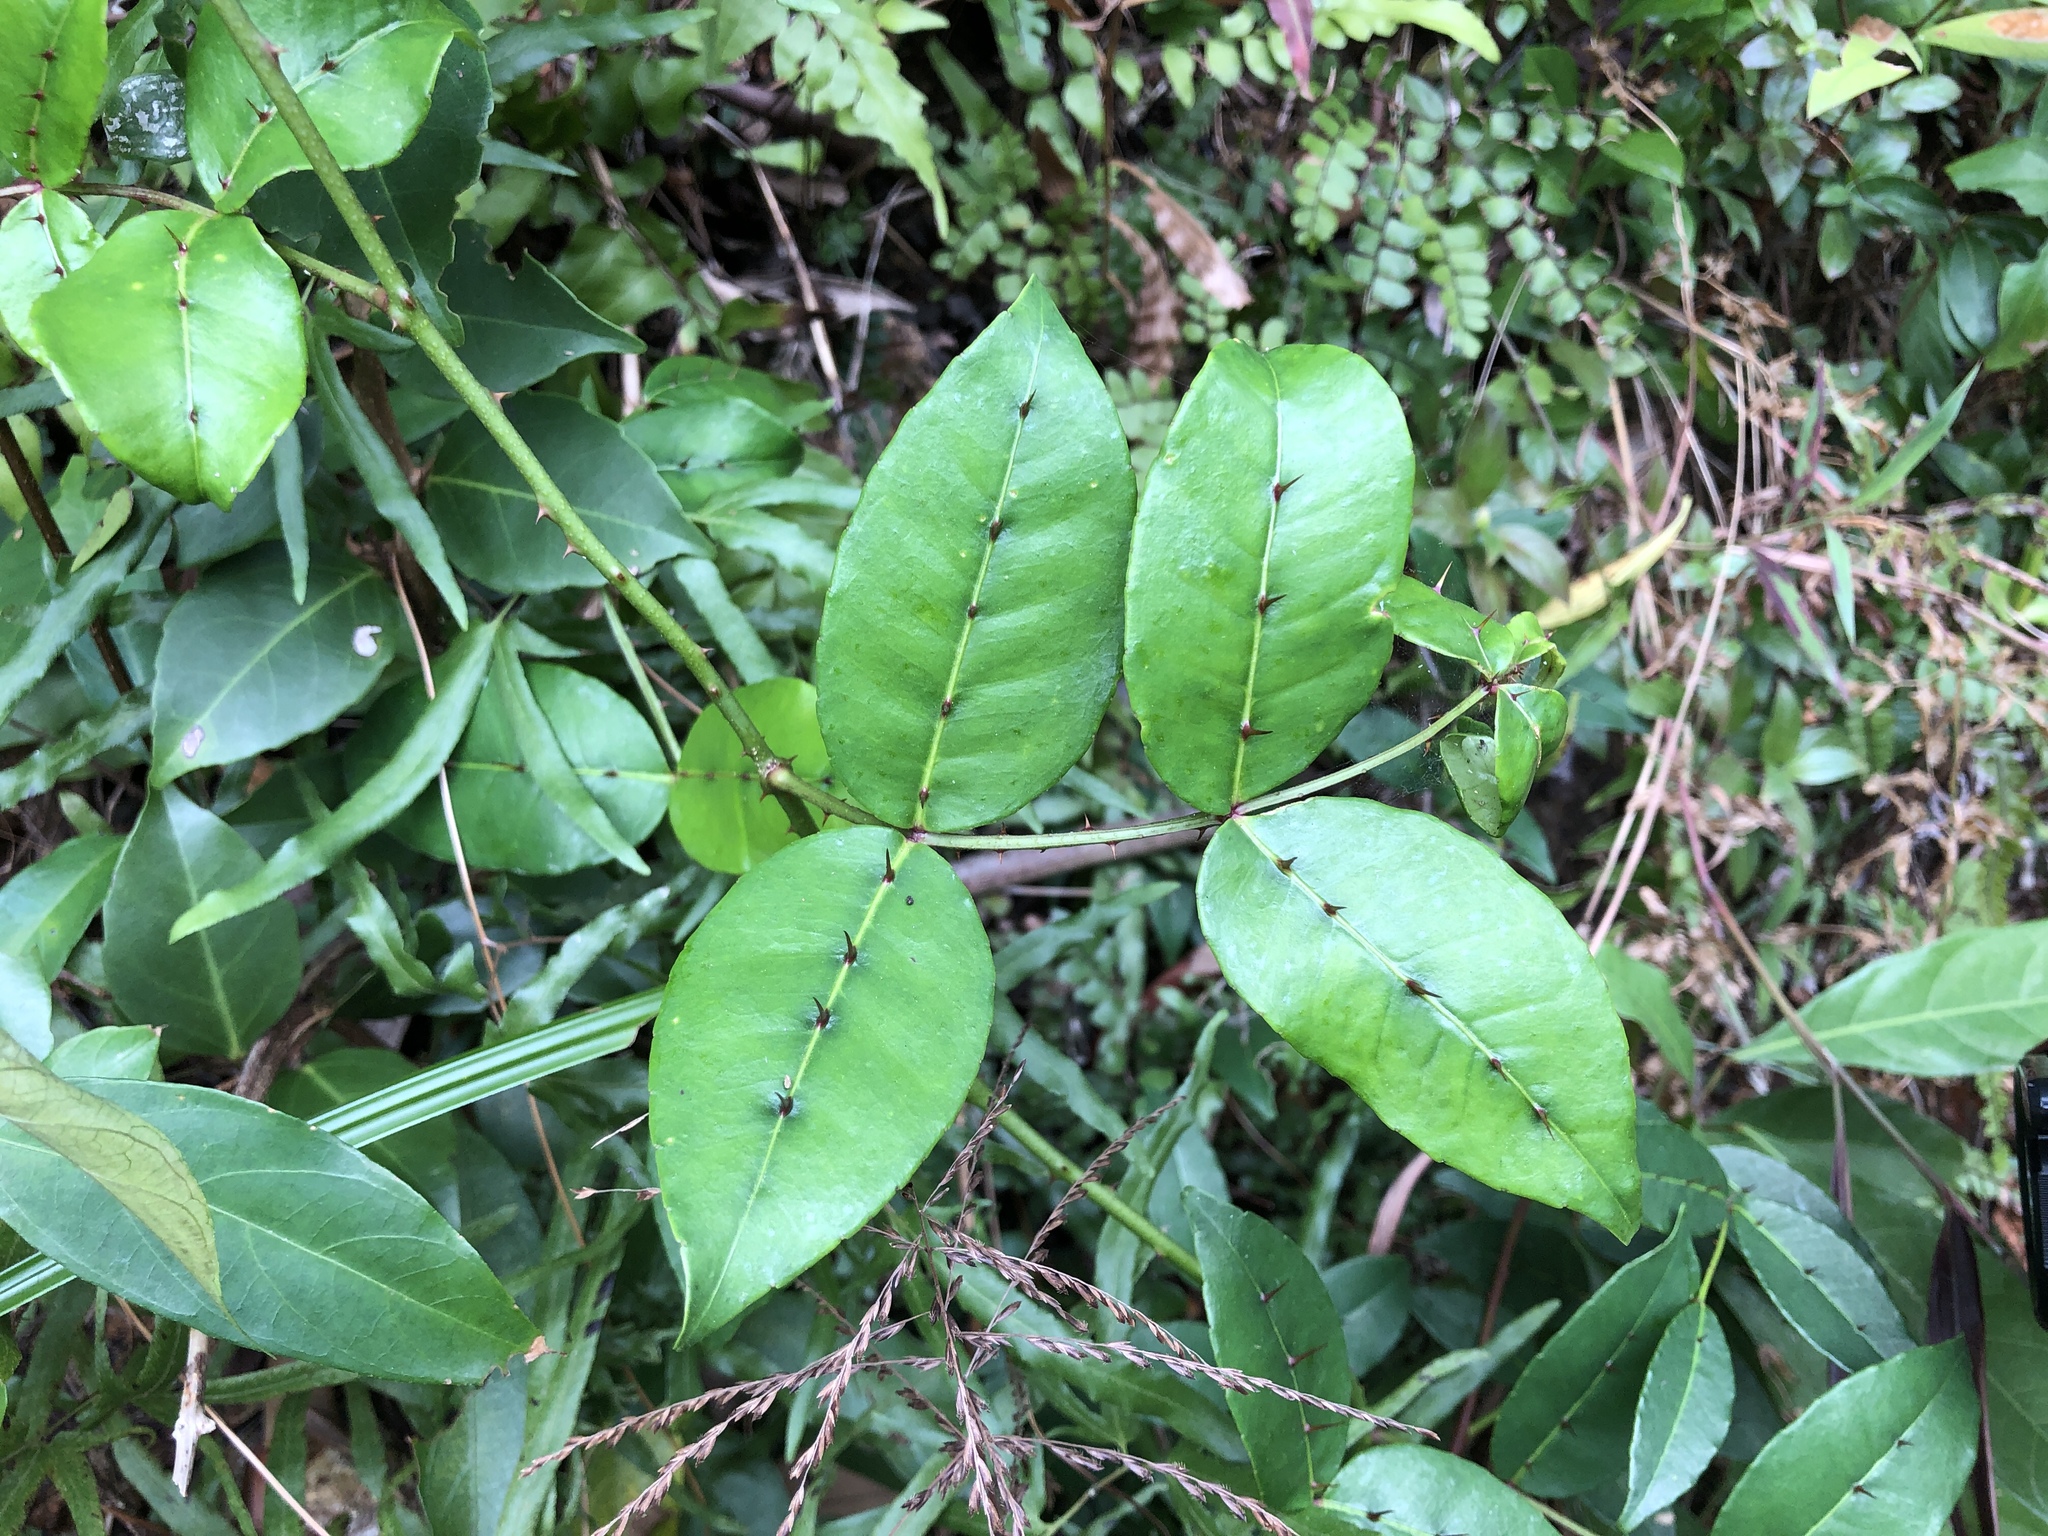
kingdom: Plantae
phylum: Tracheophyta
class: Magnoliopsida
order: Sapindales
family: Rutaceae
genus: Zanthoxylum
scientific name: Zanthoxylum nitidum
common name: Shiny-leaf prickly-ash
